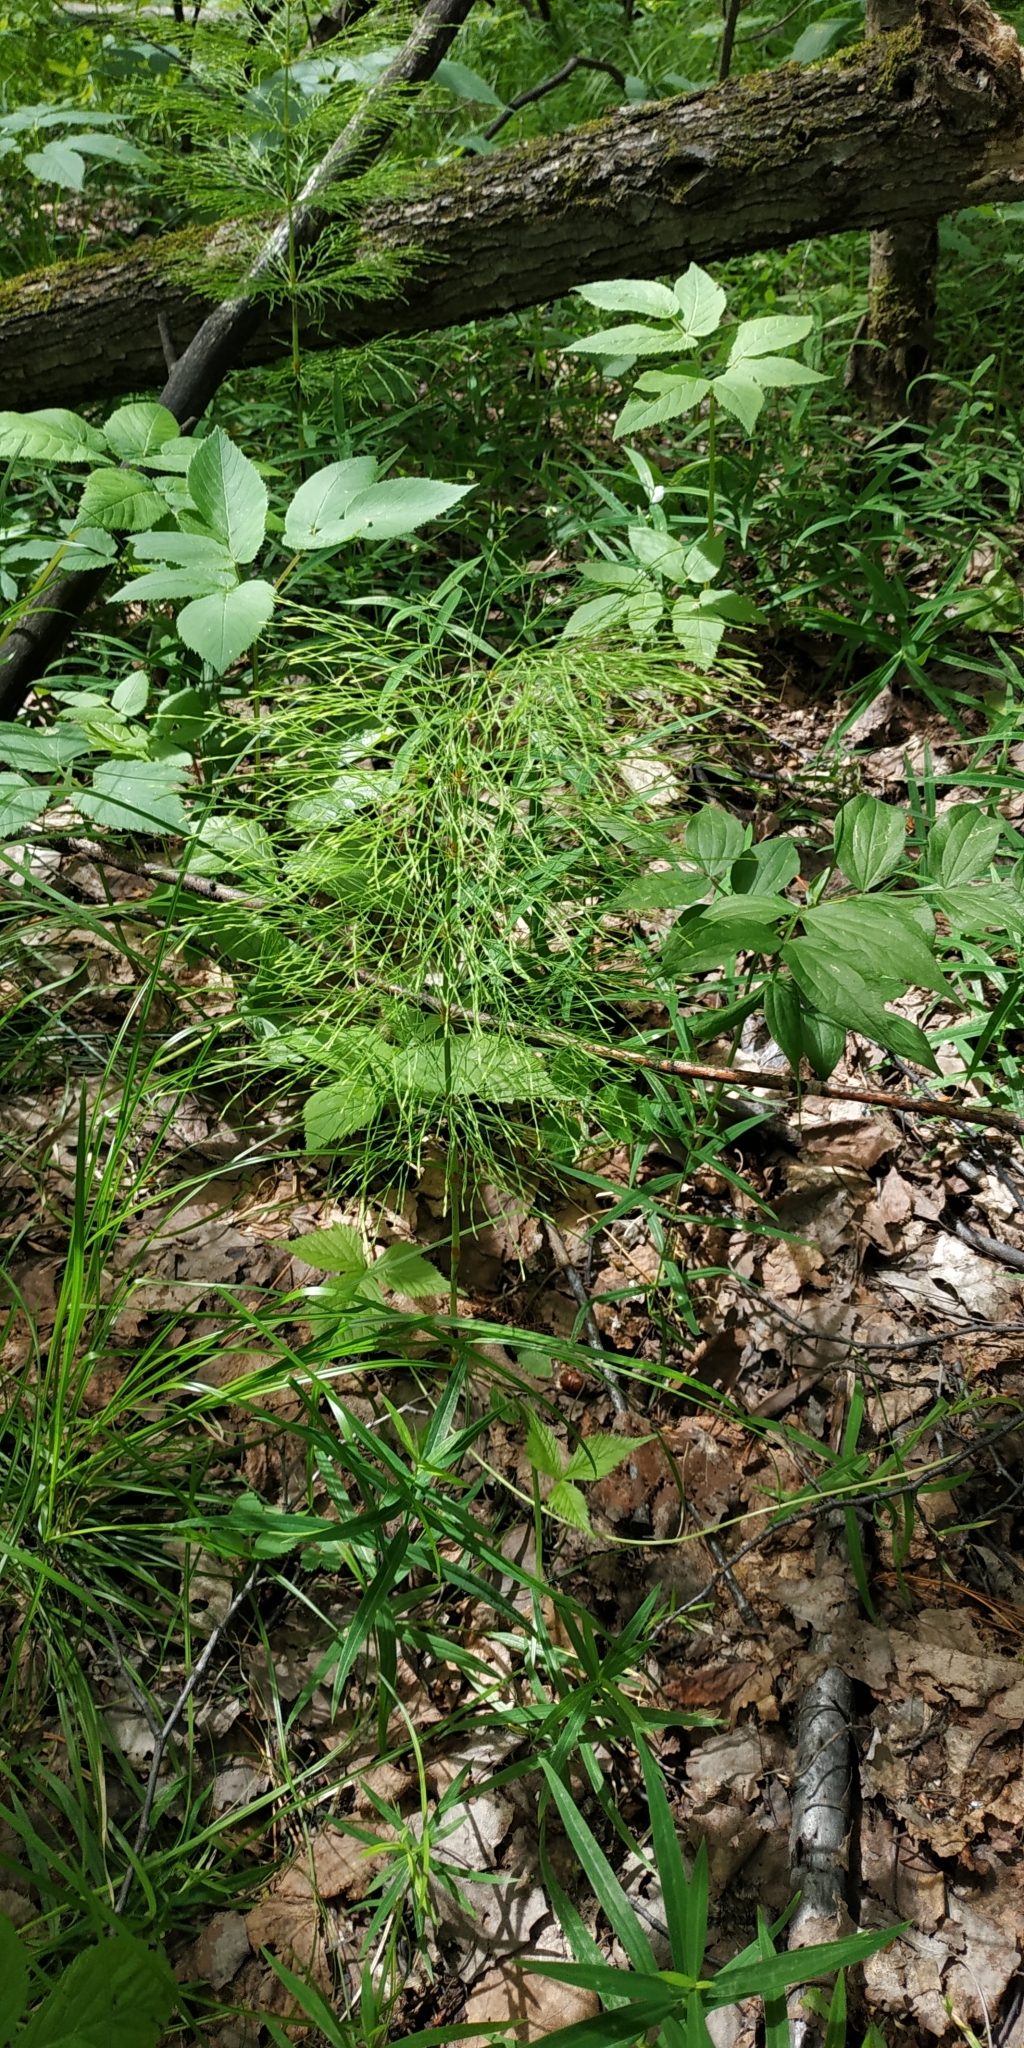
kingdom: Plantae
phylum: Tracheophyta
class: Polypodiopsida
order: Equisetales
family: Equisetaceae
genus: Equisetum
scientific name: Equisetum sylvaticum
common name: Wood horsetail
